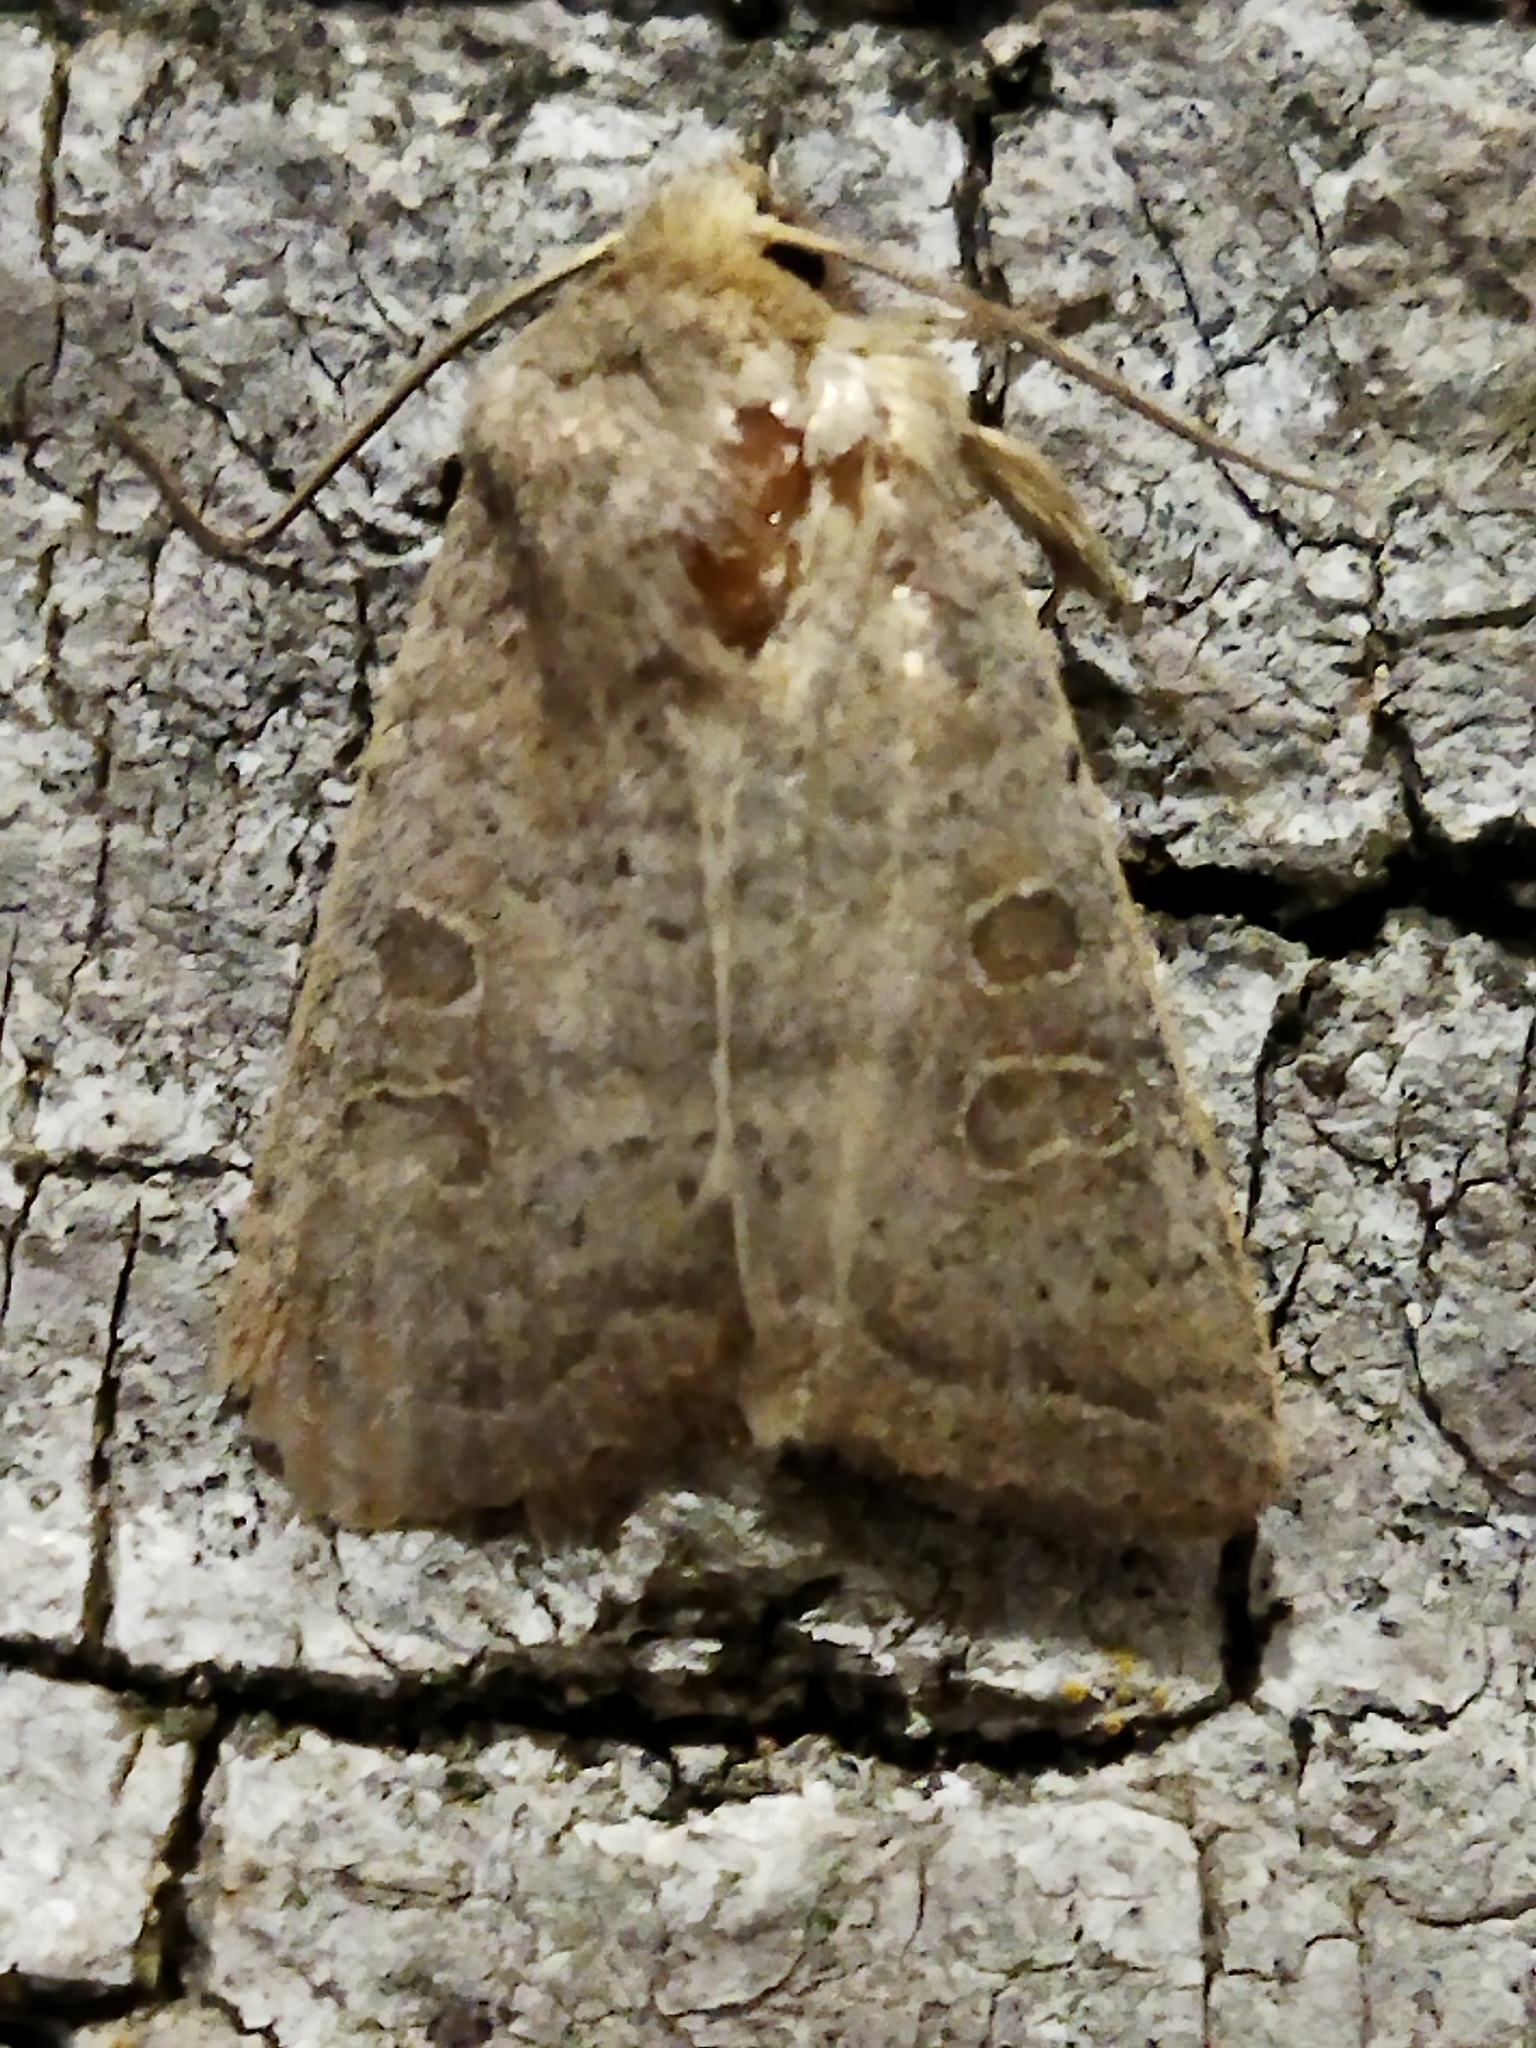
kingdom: Animalia
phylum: Arthropoda
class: Insecta
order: Lepidoptera
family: Noctuidae
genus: Hoplodrina
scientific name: Hoplodrina ambigua
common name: Vine's rustic
